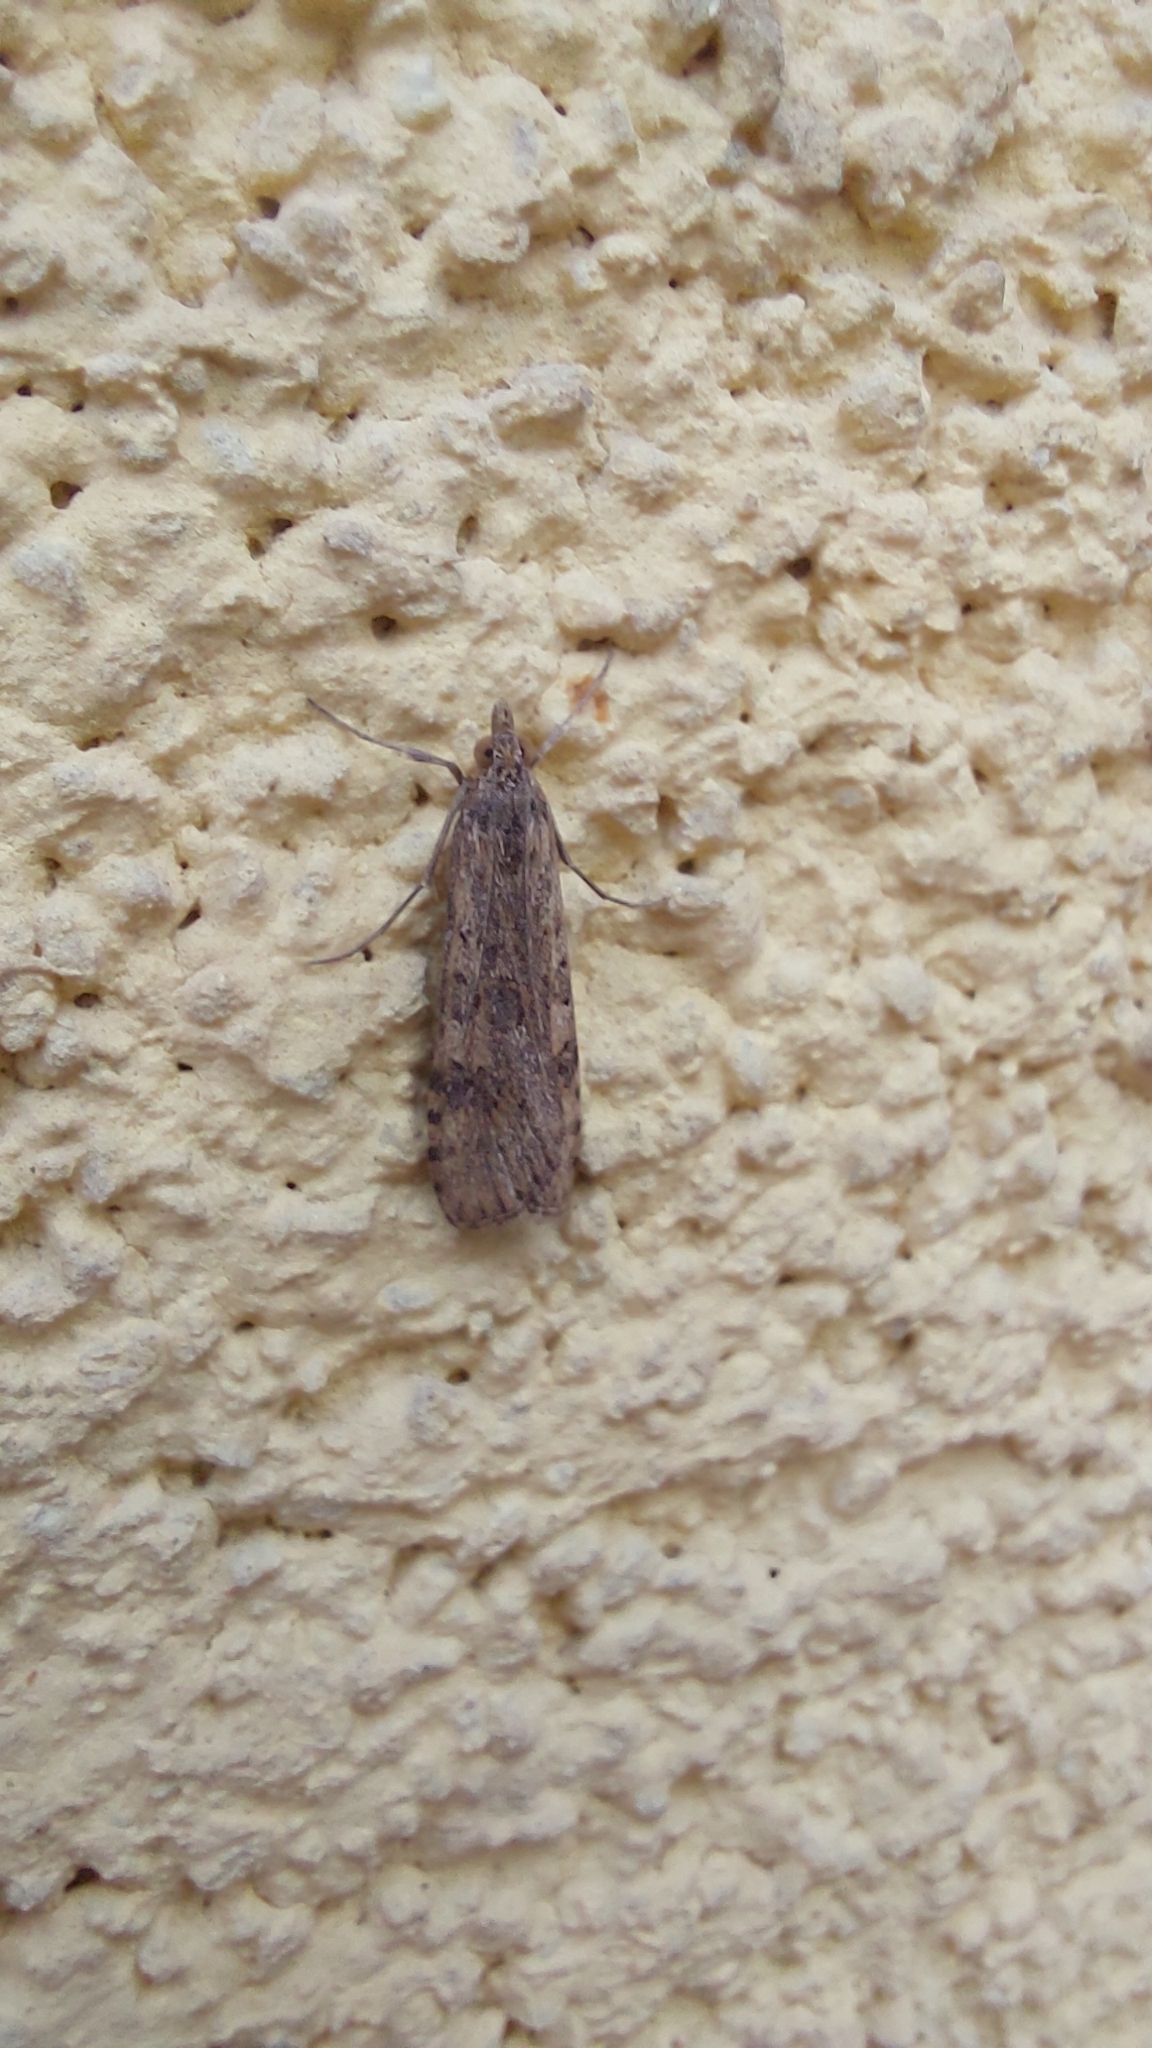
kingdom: Animalia
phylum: Arthropoda
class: Insecta
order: Lepidoptera
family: Crambidae
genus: Nomophila
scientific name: Nomophila noctuella
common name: Rush veneer
